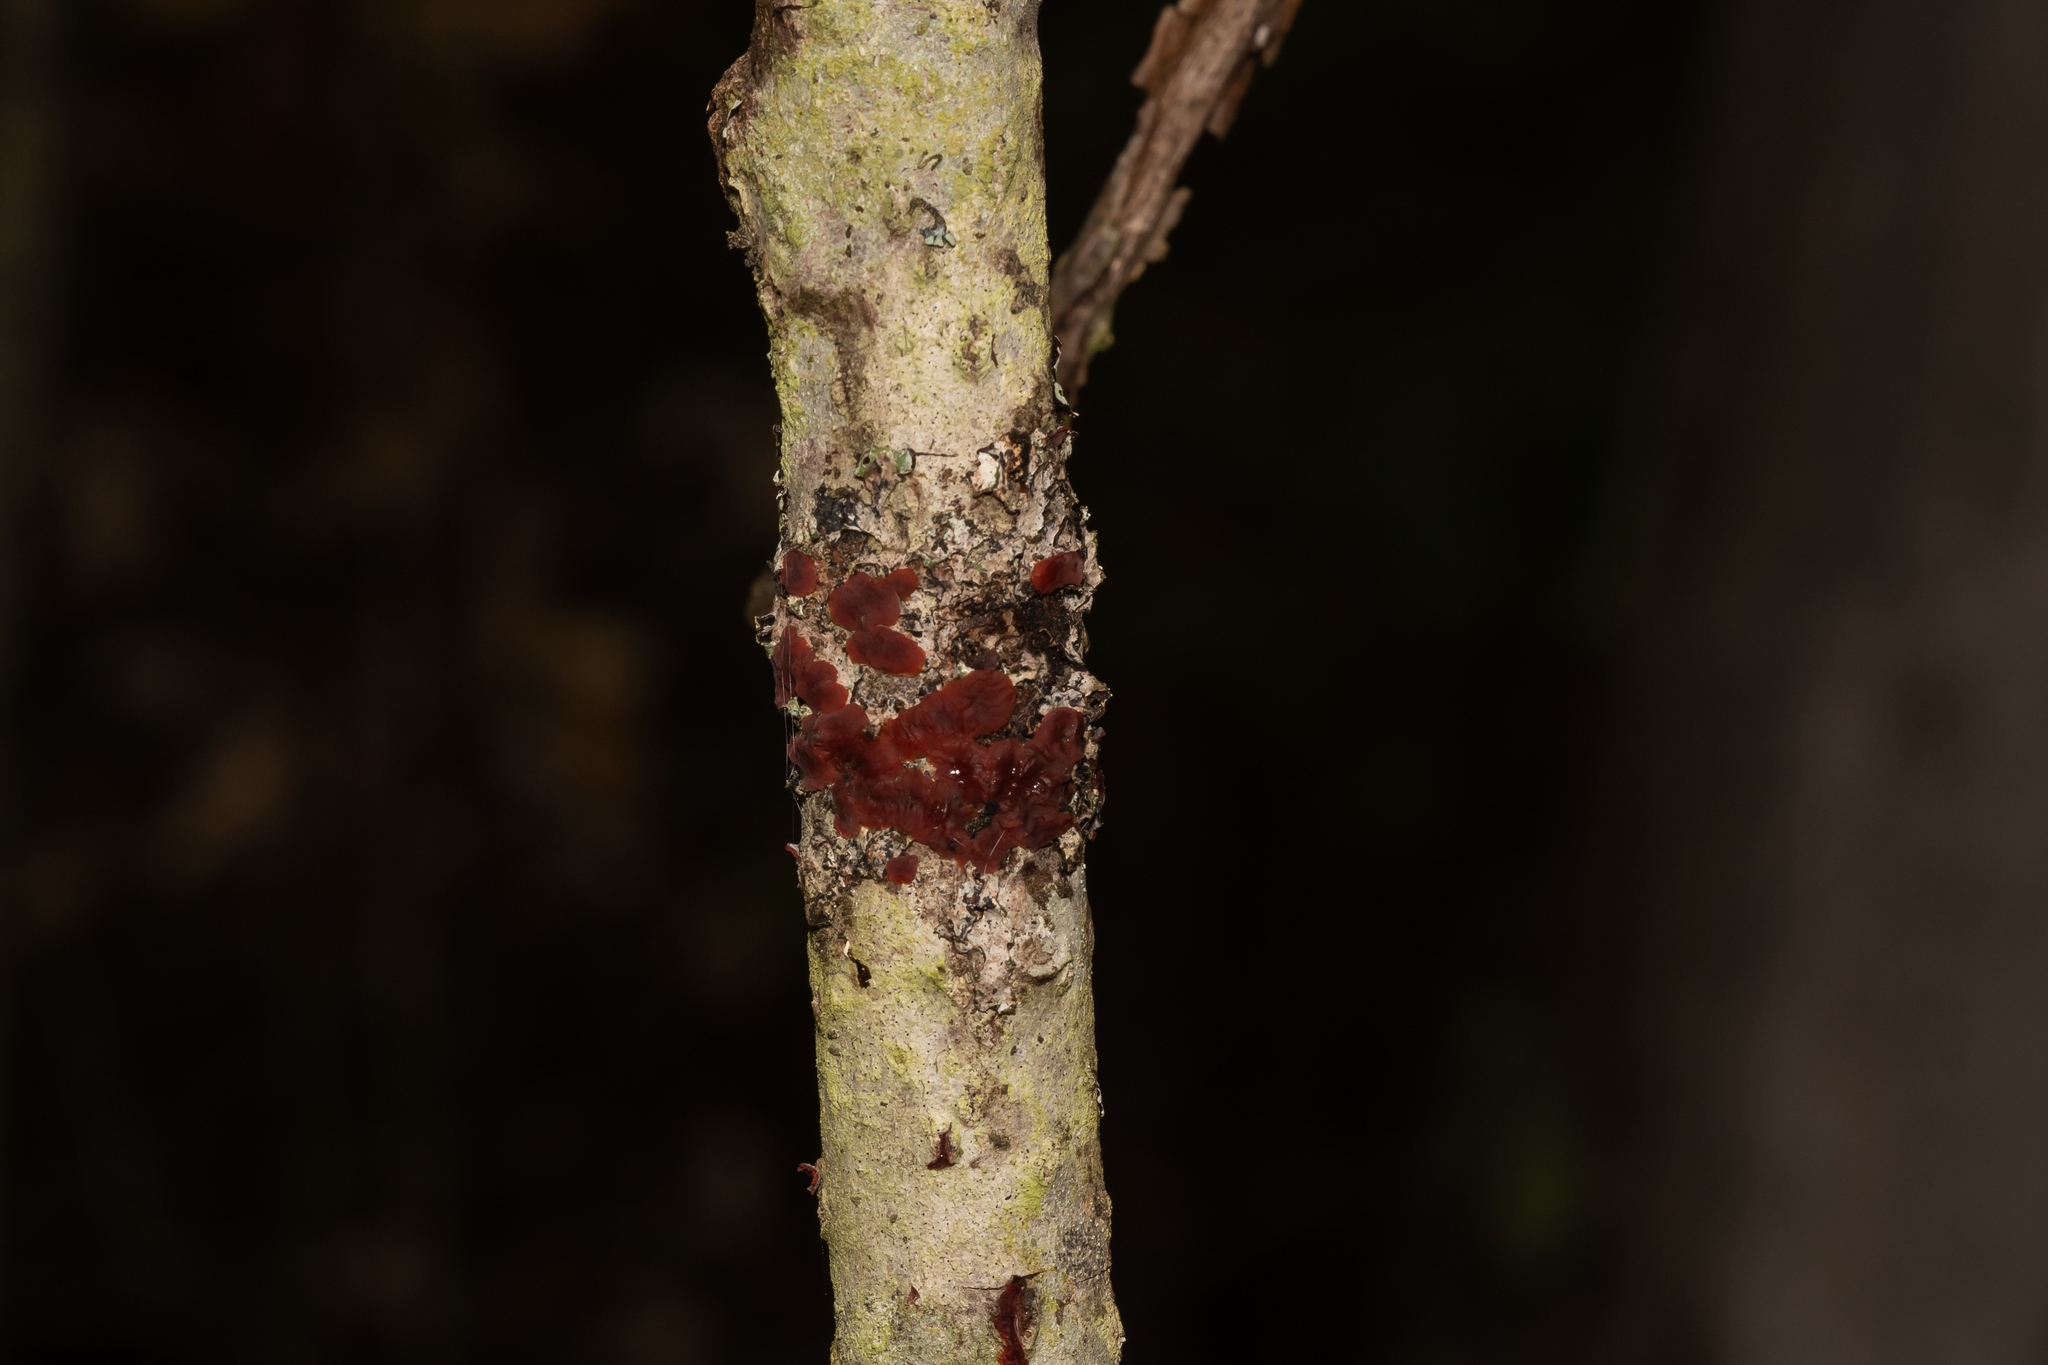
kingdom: Fungi
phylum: Basidiomycota
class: Agaricomycetes
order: Corticiales
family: Vuilleminiaceae
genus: Cytidia
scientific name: Cytidia salicina
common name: Scarlet splash
